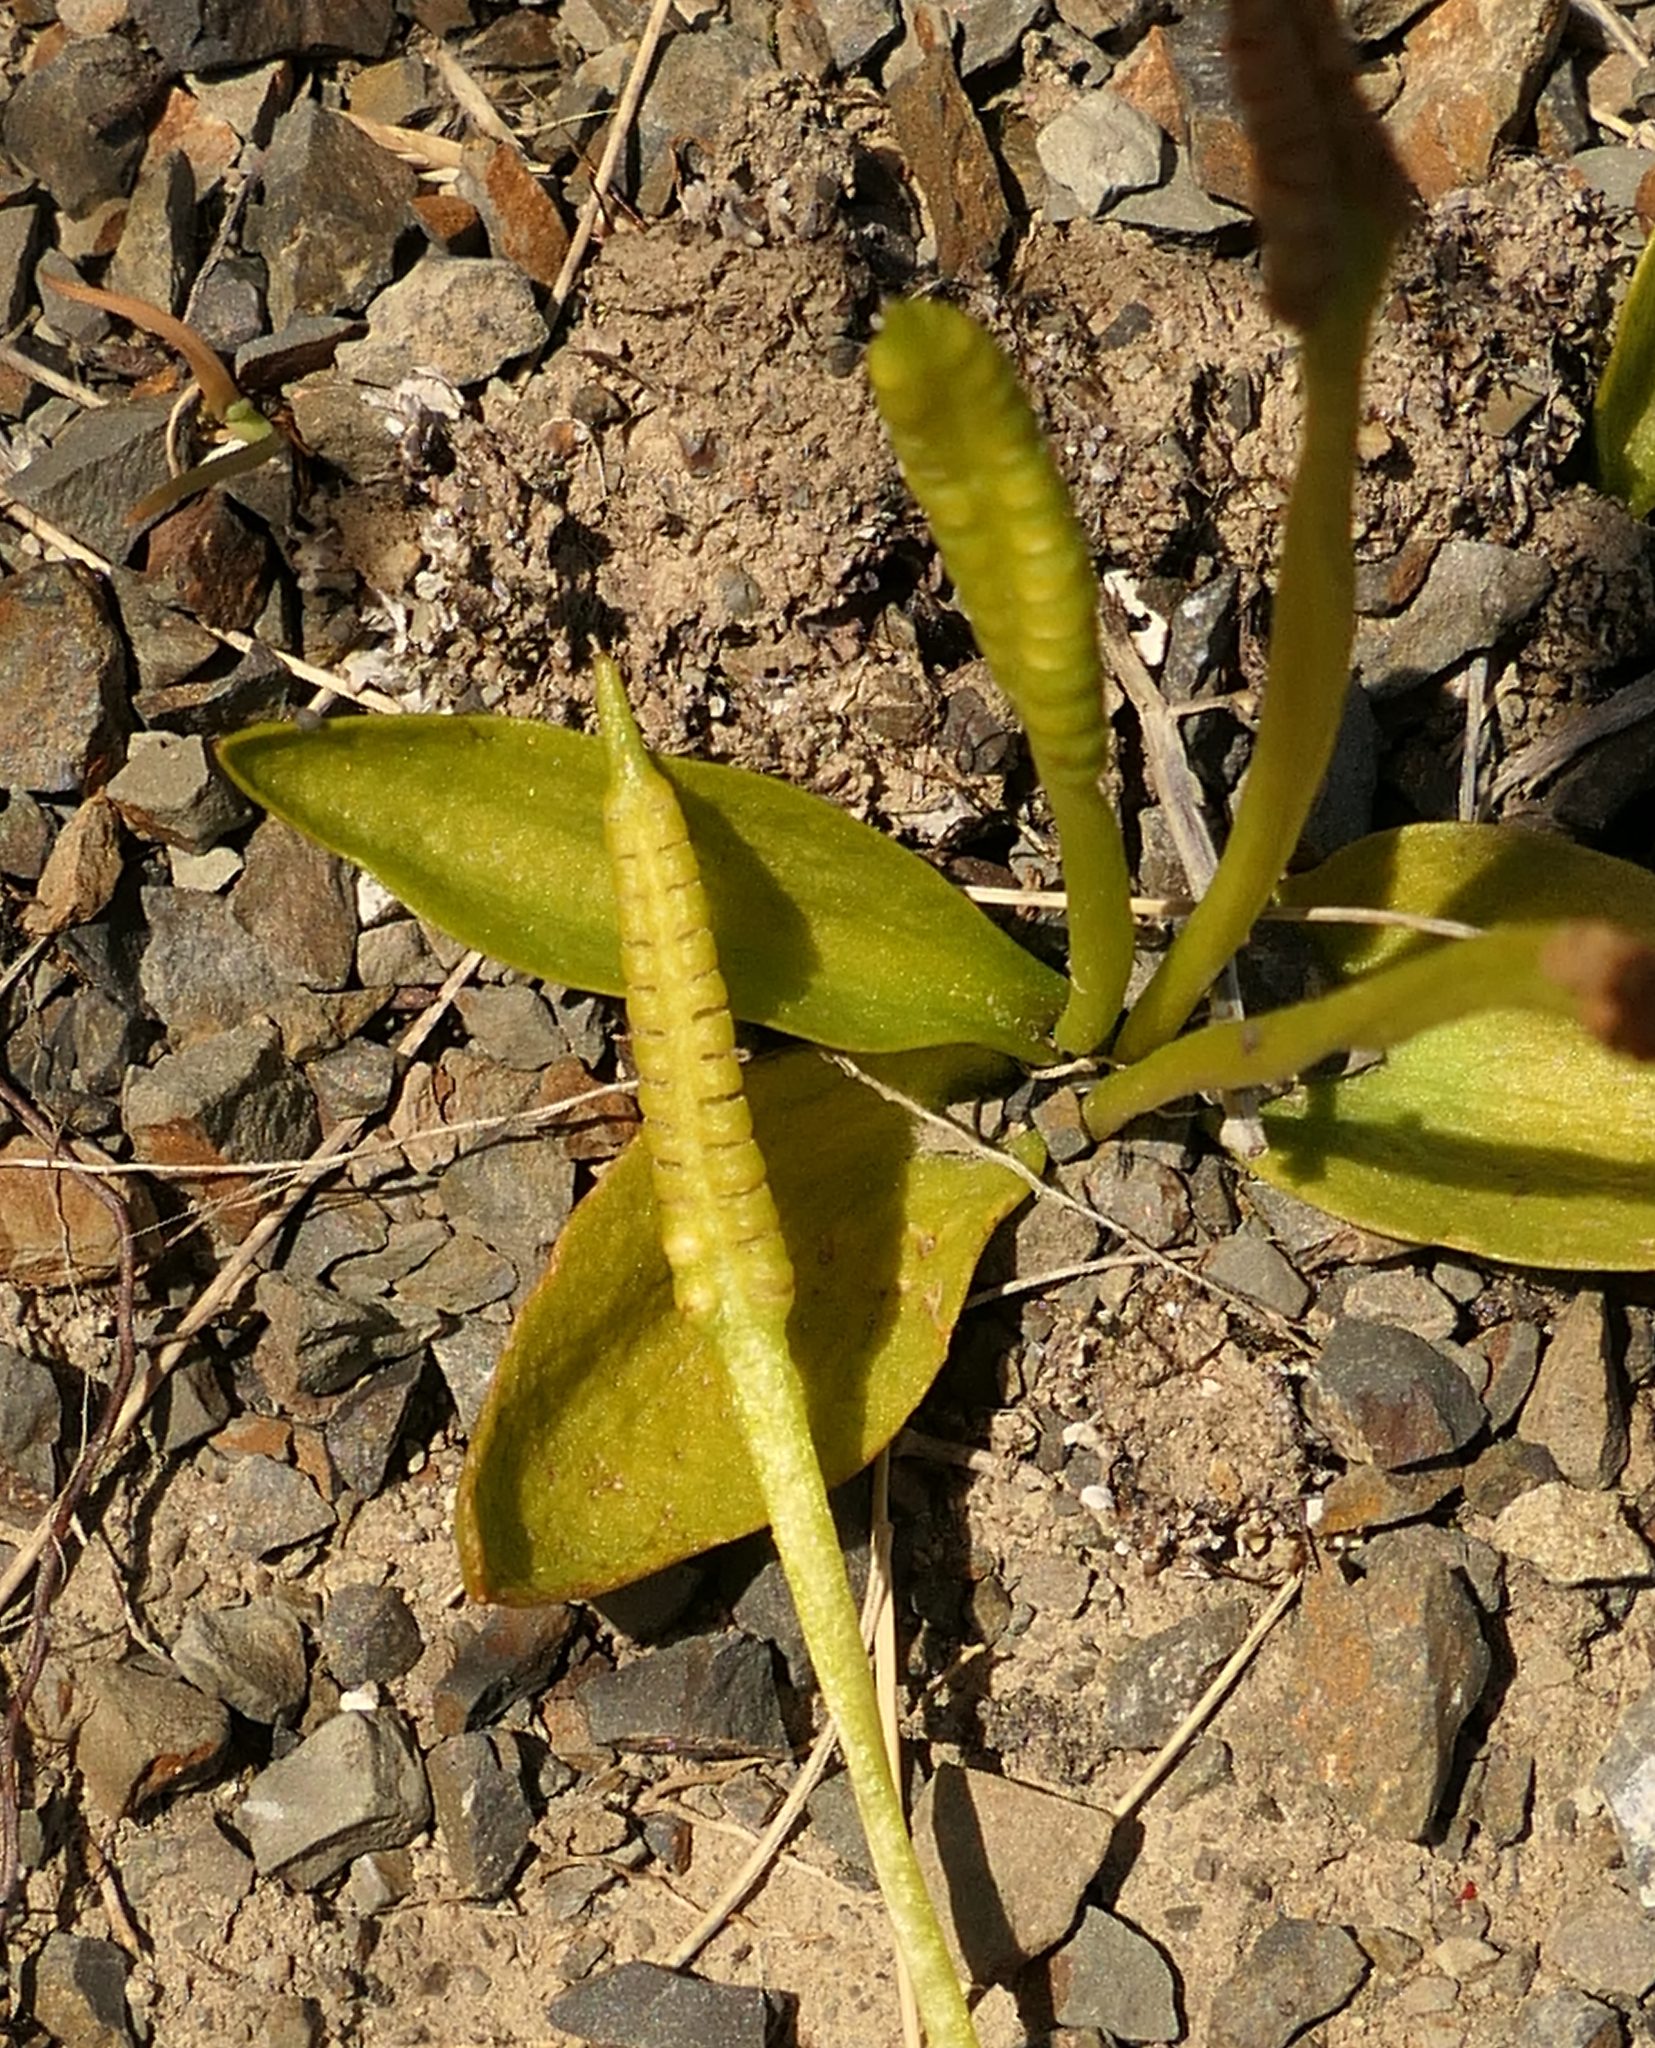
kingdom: Plantae
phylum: Tracheophyta
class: Polypodiopsida
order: Ophioglossales
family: Ophioglossaceae
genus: Ophioglossum
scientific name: Ophioglossum coriaceum
